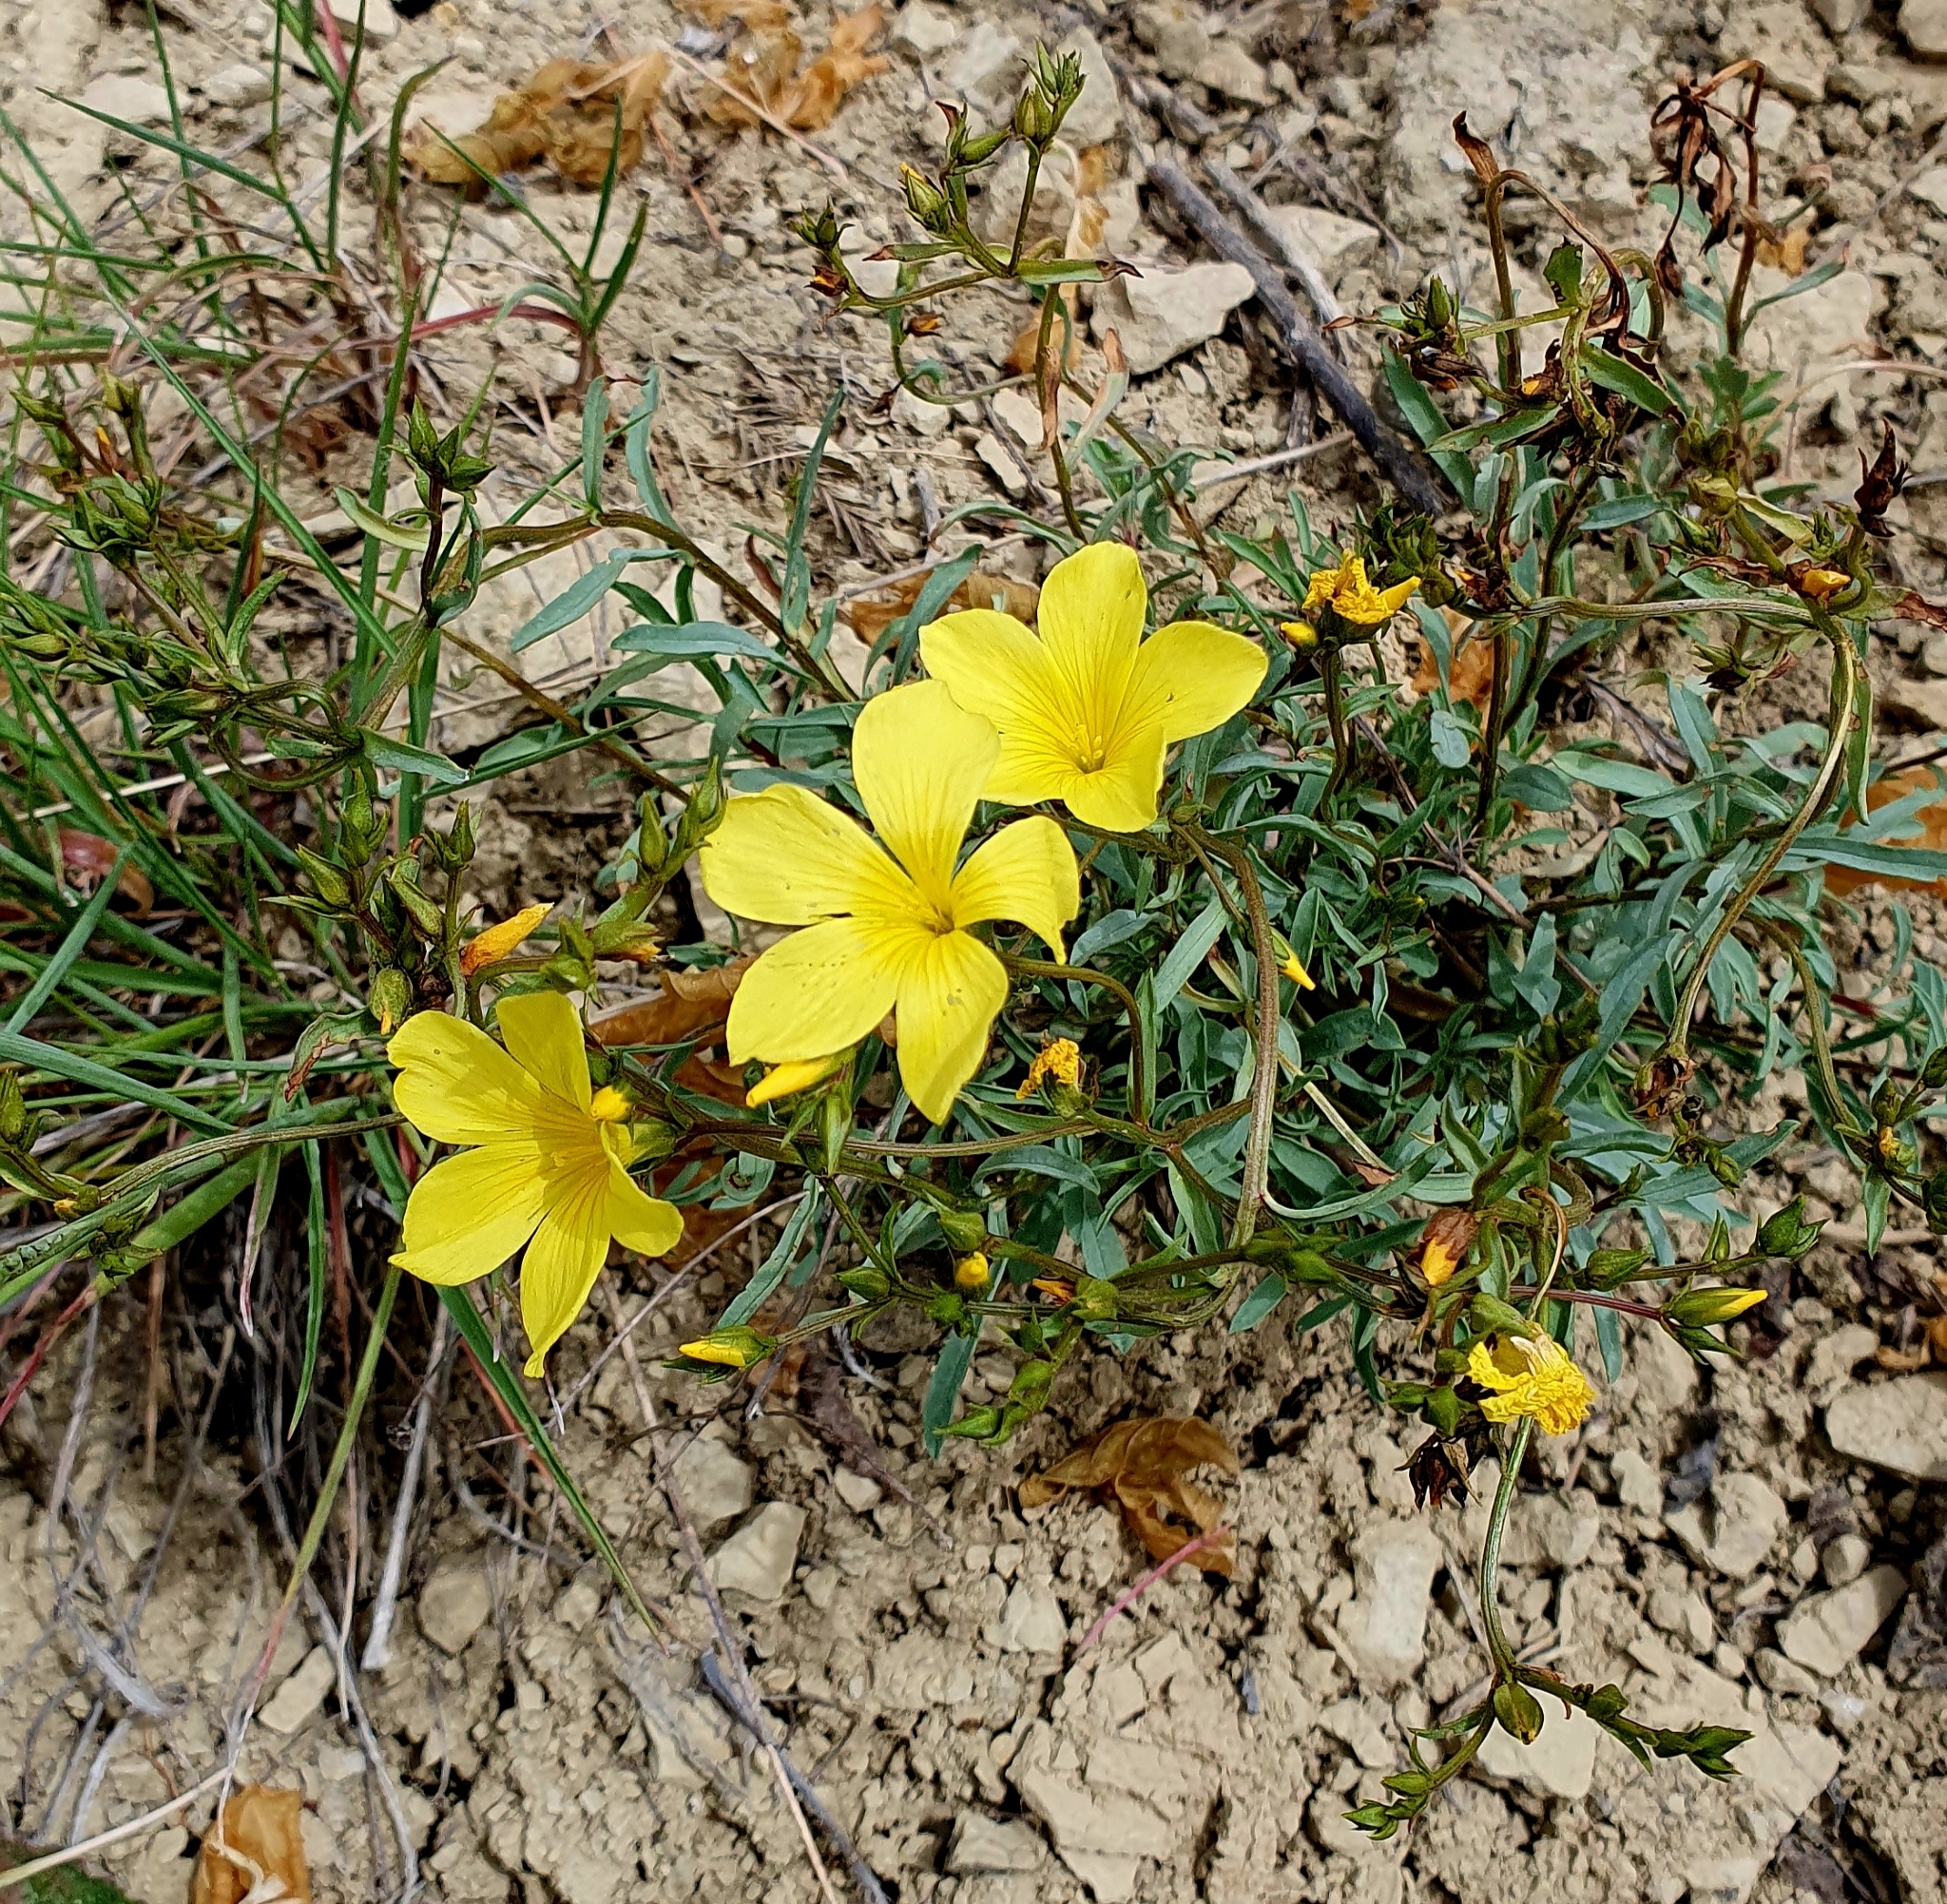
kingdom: Plantae
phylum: Tracheophyta
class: Magnoliopsida
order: Malpighiales
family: Linaceae
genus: Linum
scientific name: Linum ucranicum
